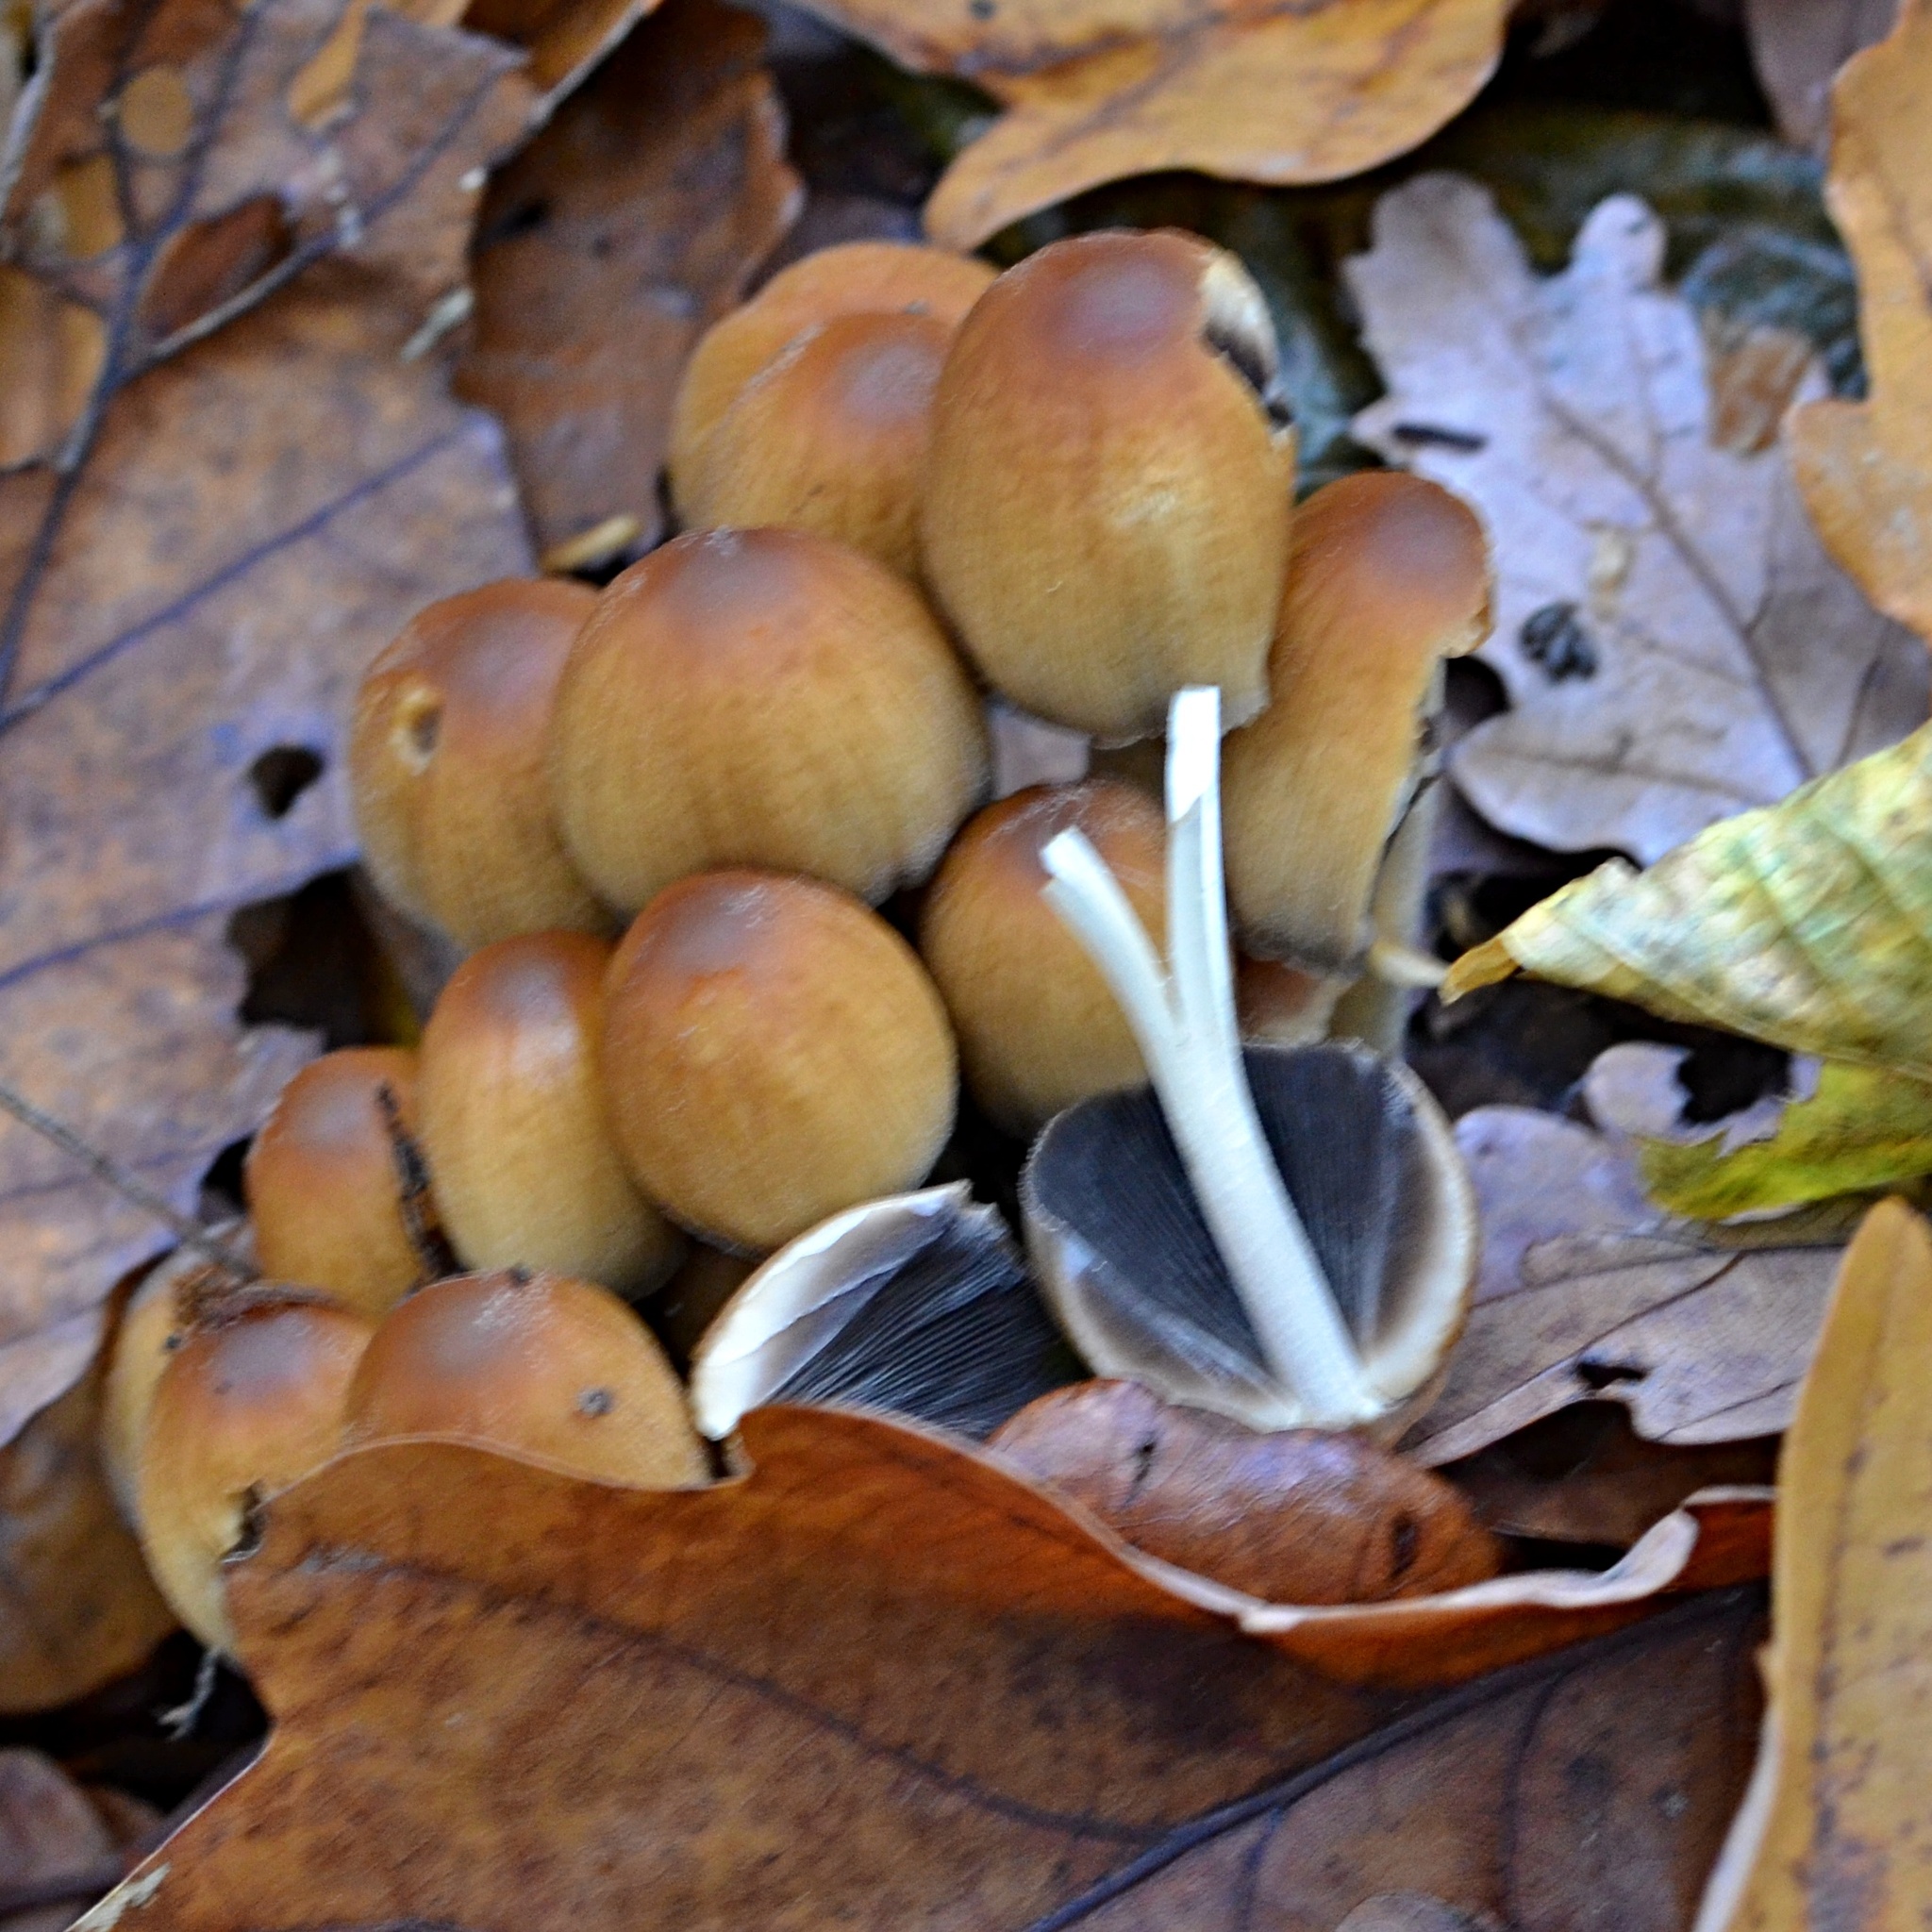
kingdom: Fungi
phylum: Basidiomycota
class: Agaricomycetes
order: Agaricales
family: Psathyrellaceae
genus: Coprinellus
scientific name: Coprinellus micaceus
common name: Glistening ink-cap
